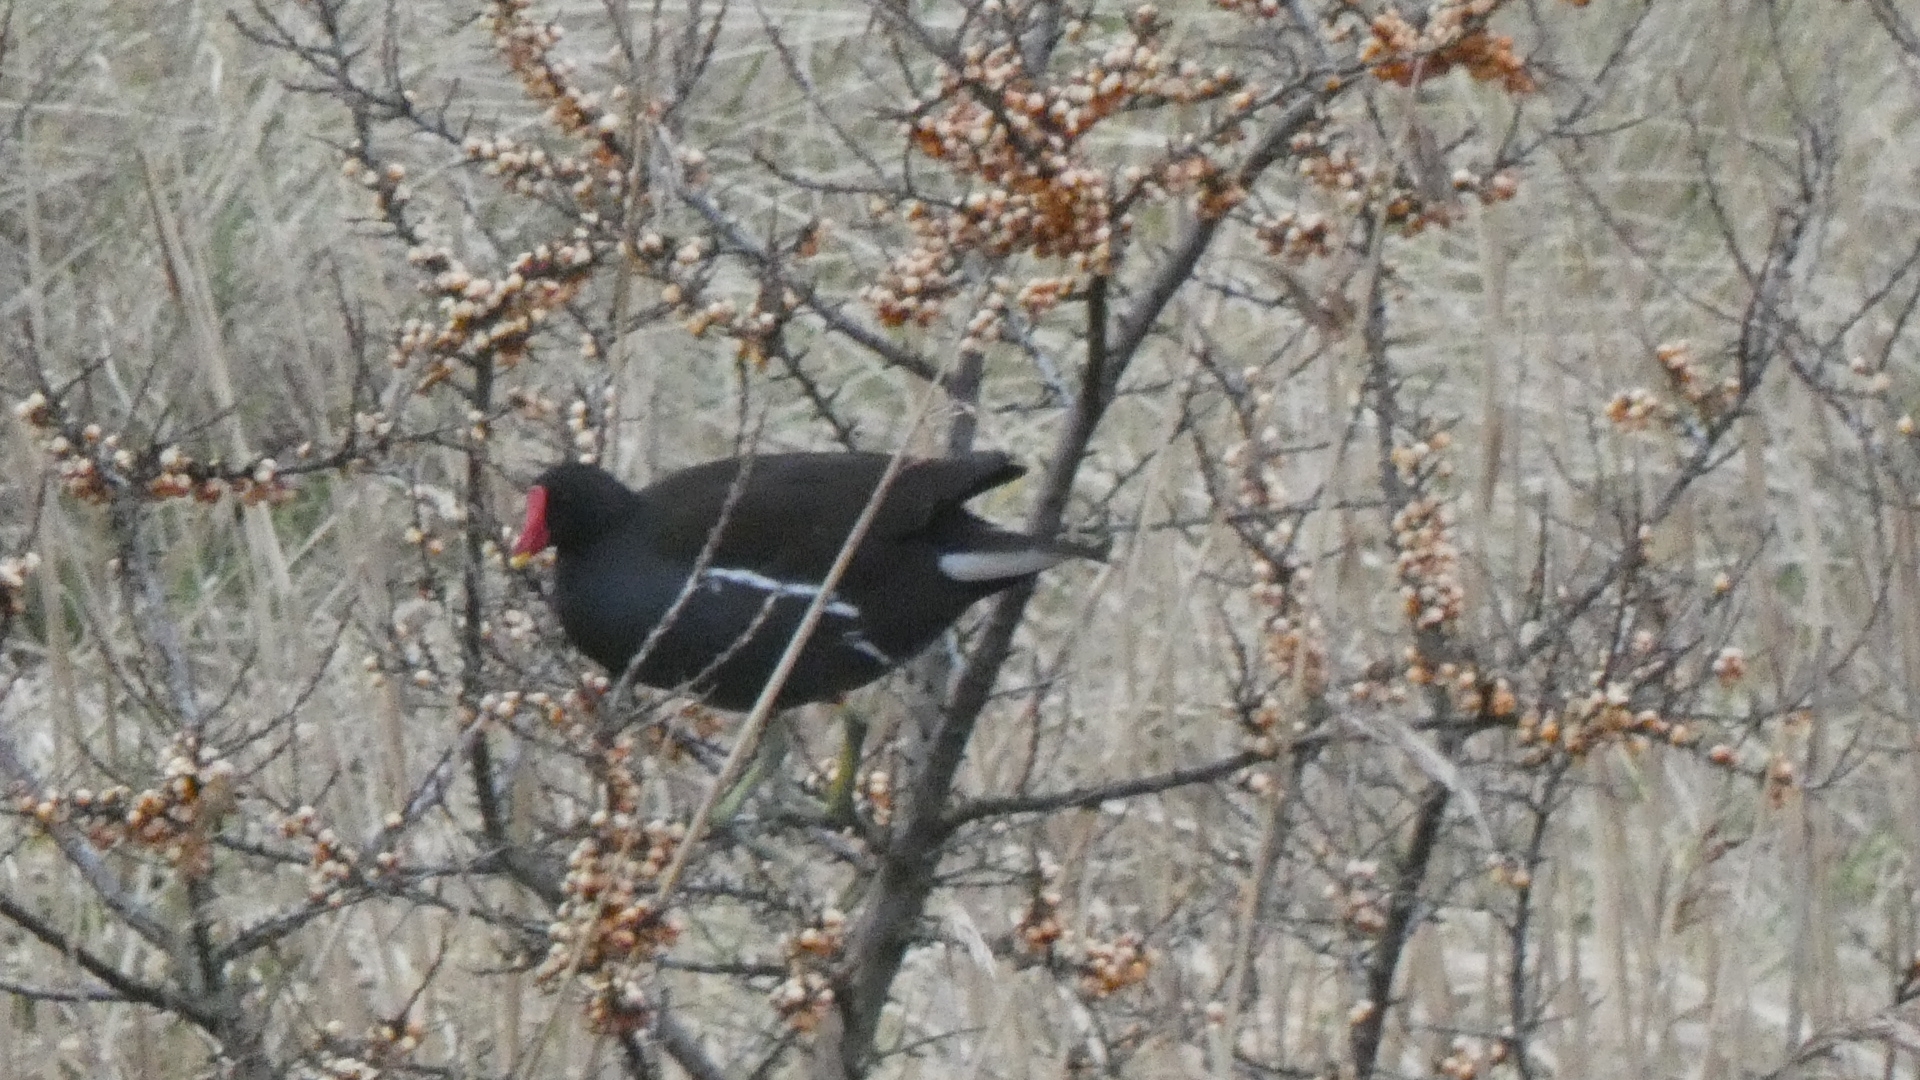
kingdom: Animalia
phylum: Chordata
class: Aves
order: Gruiformes
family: Rallidae
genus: Gallinula
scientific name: Gallinula chloropus
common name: Common moorhen
